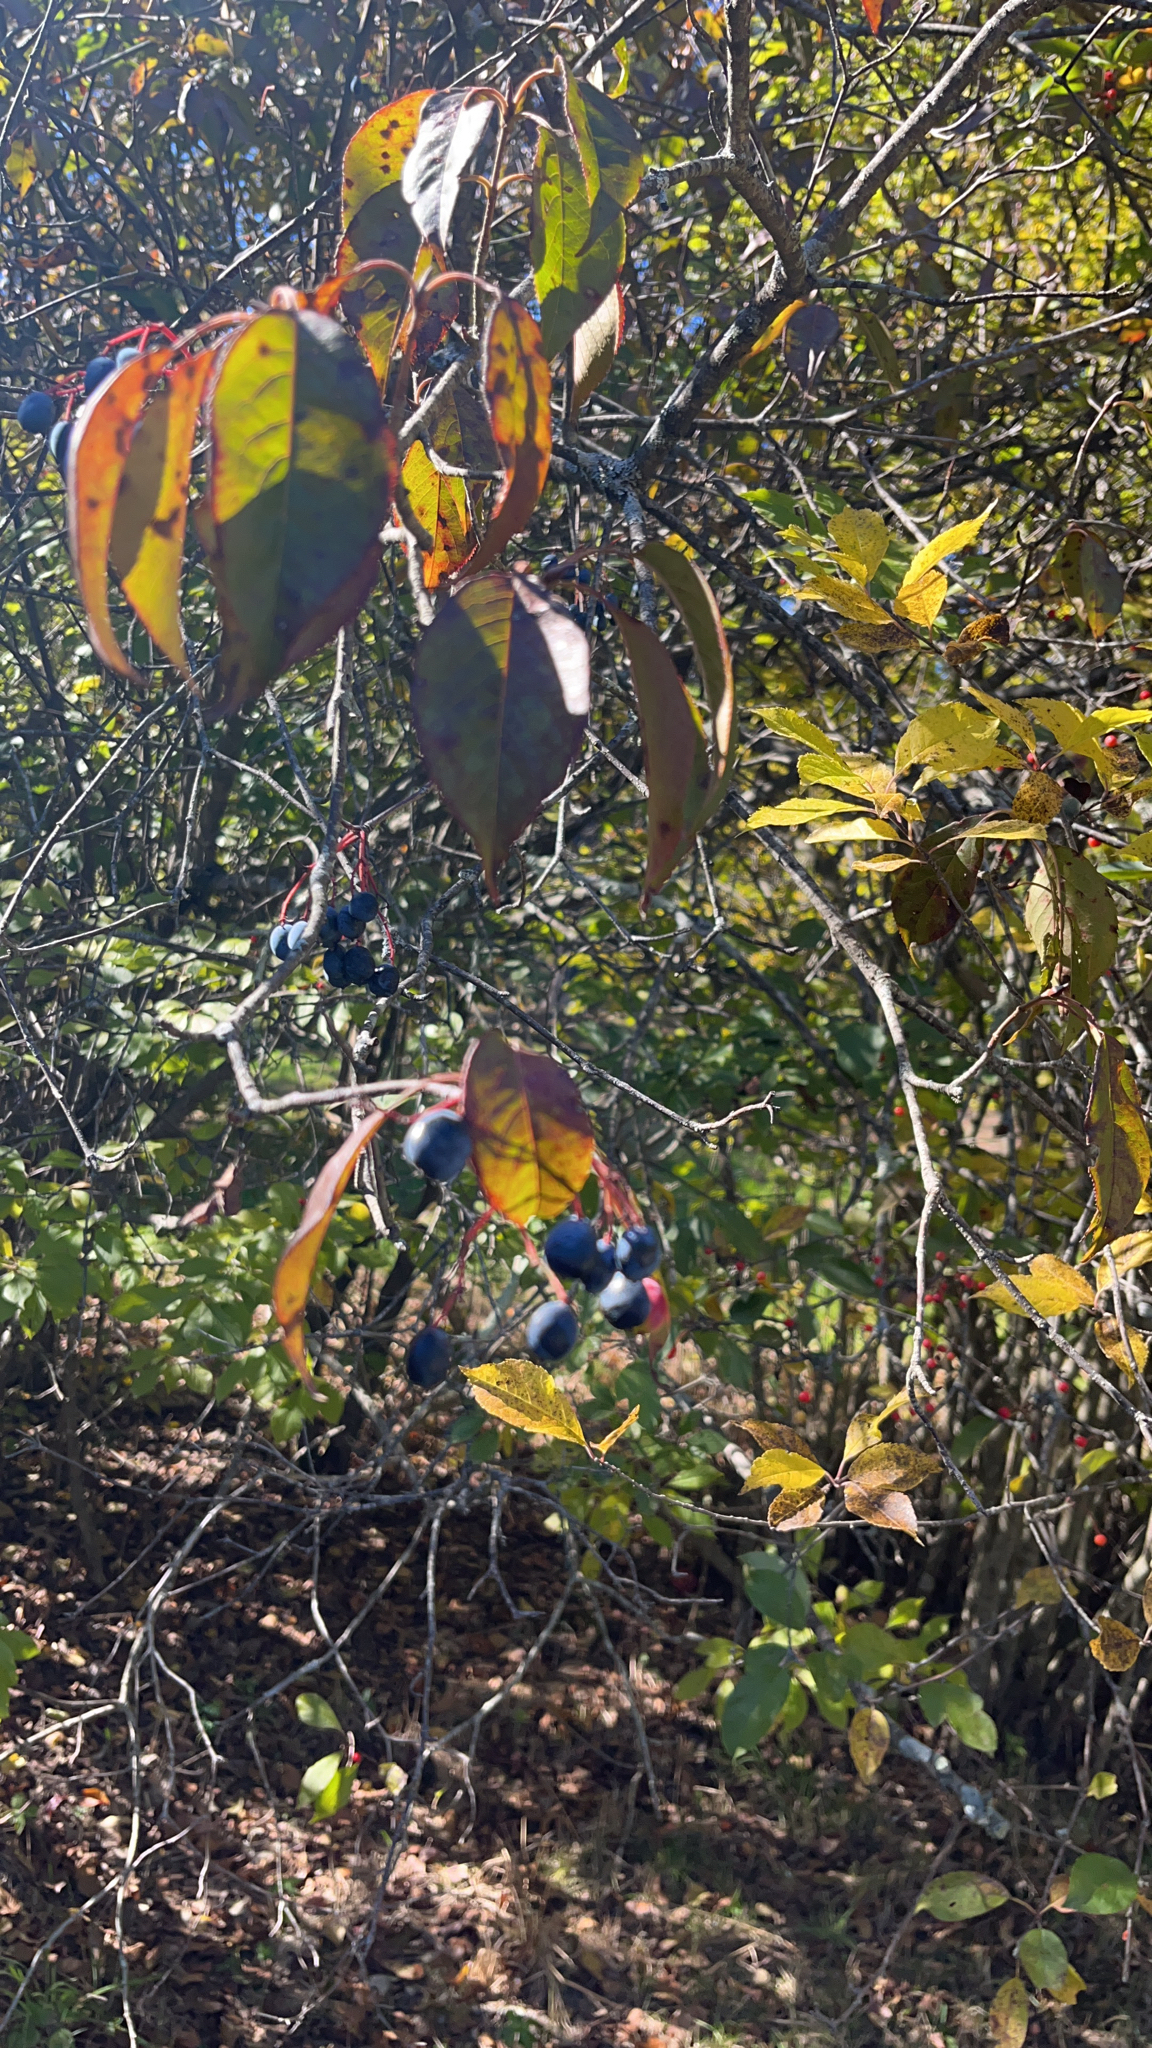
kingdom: Plantae
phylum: Tracheophyta
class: Magnoliopsida
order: Lamiales
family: Oleaceae
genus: Chionanthus
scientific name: Chionanthus virginicus
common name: American fringetree
